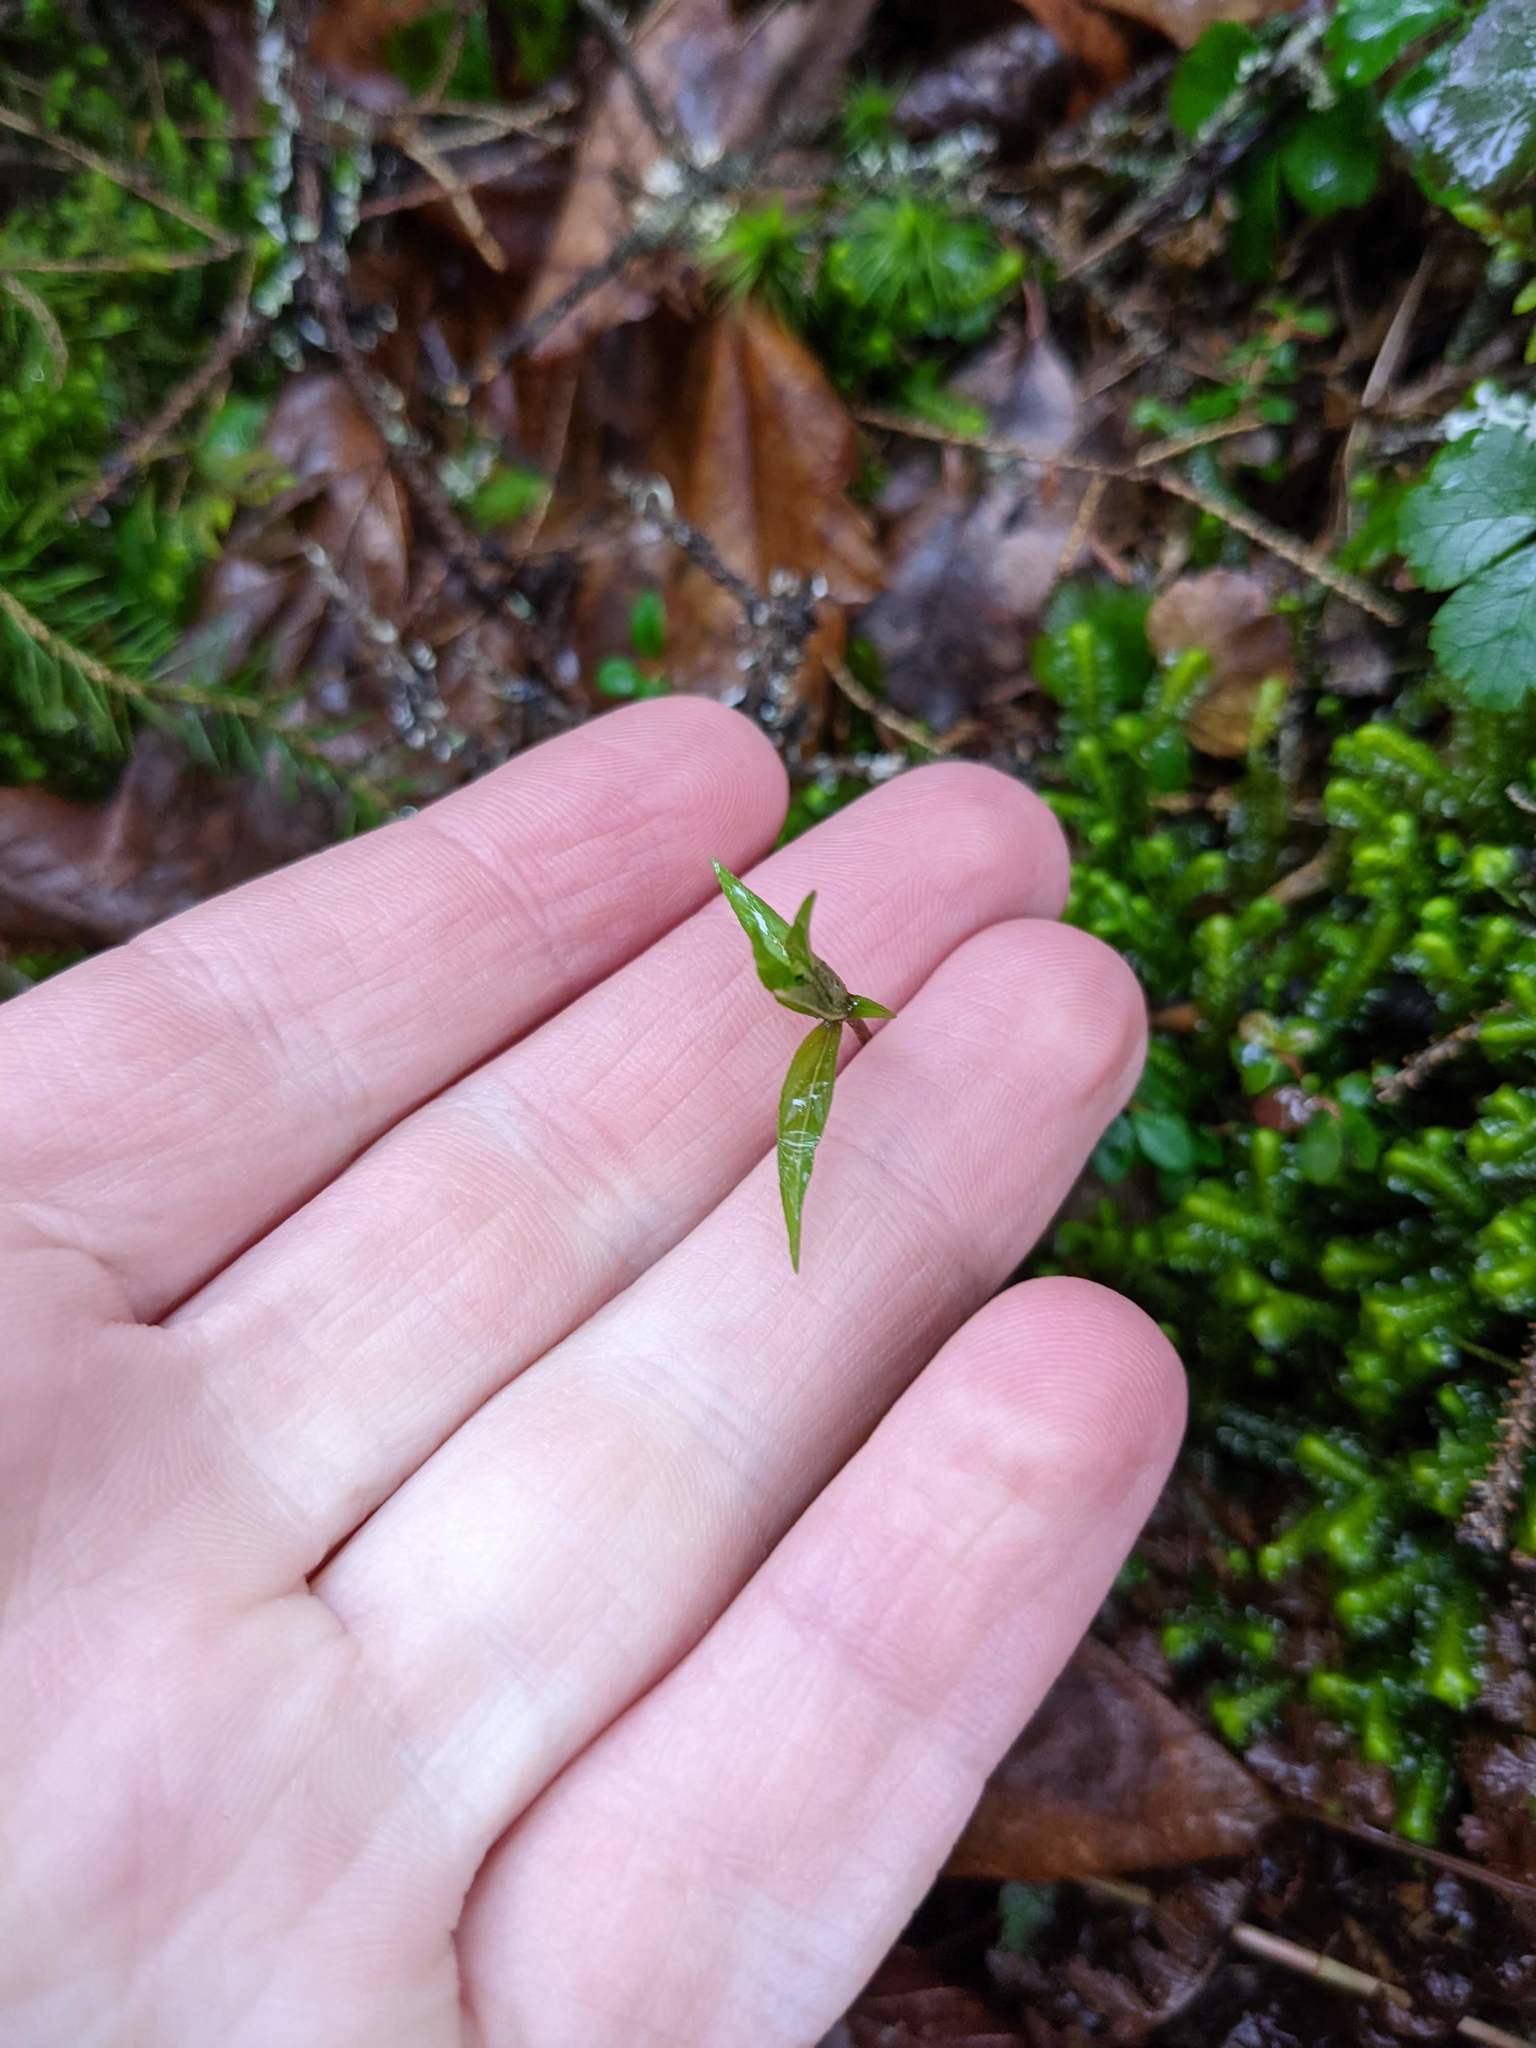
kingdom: Plantae
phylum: Tracheophyta
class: Magnoliopsida
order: Ericales
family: Primulaceae
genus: Lysimachia
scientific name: Lysimachia borealis
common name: American starflower
